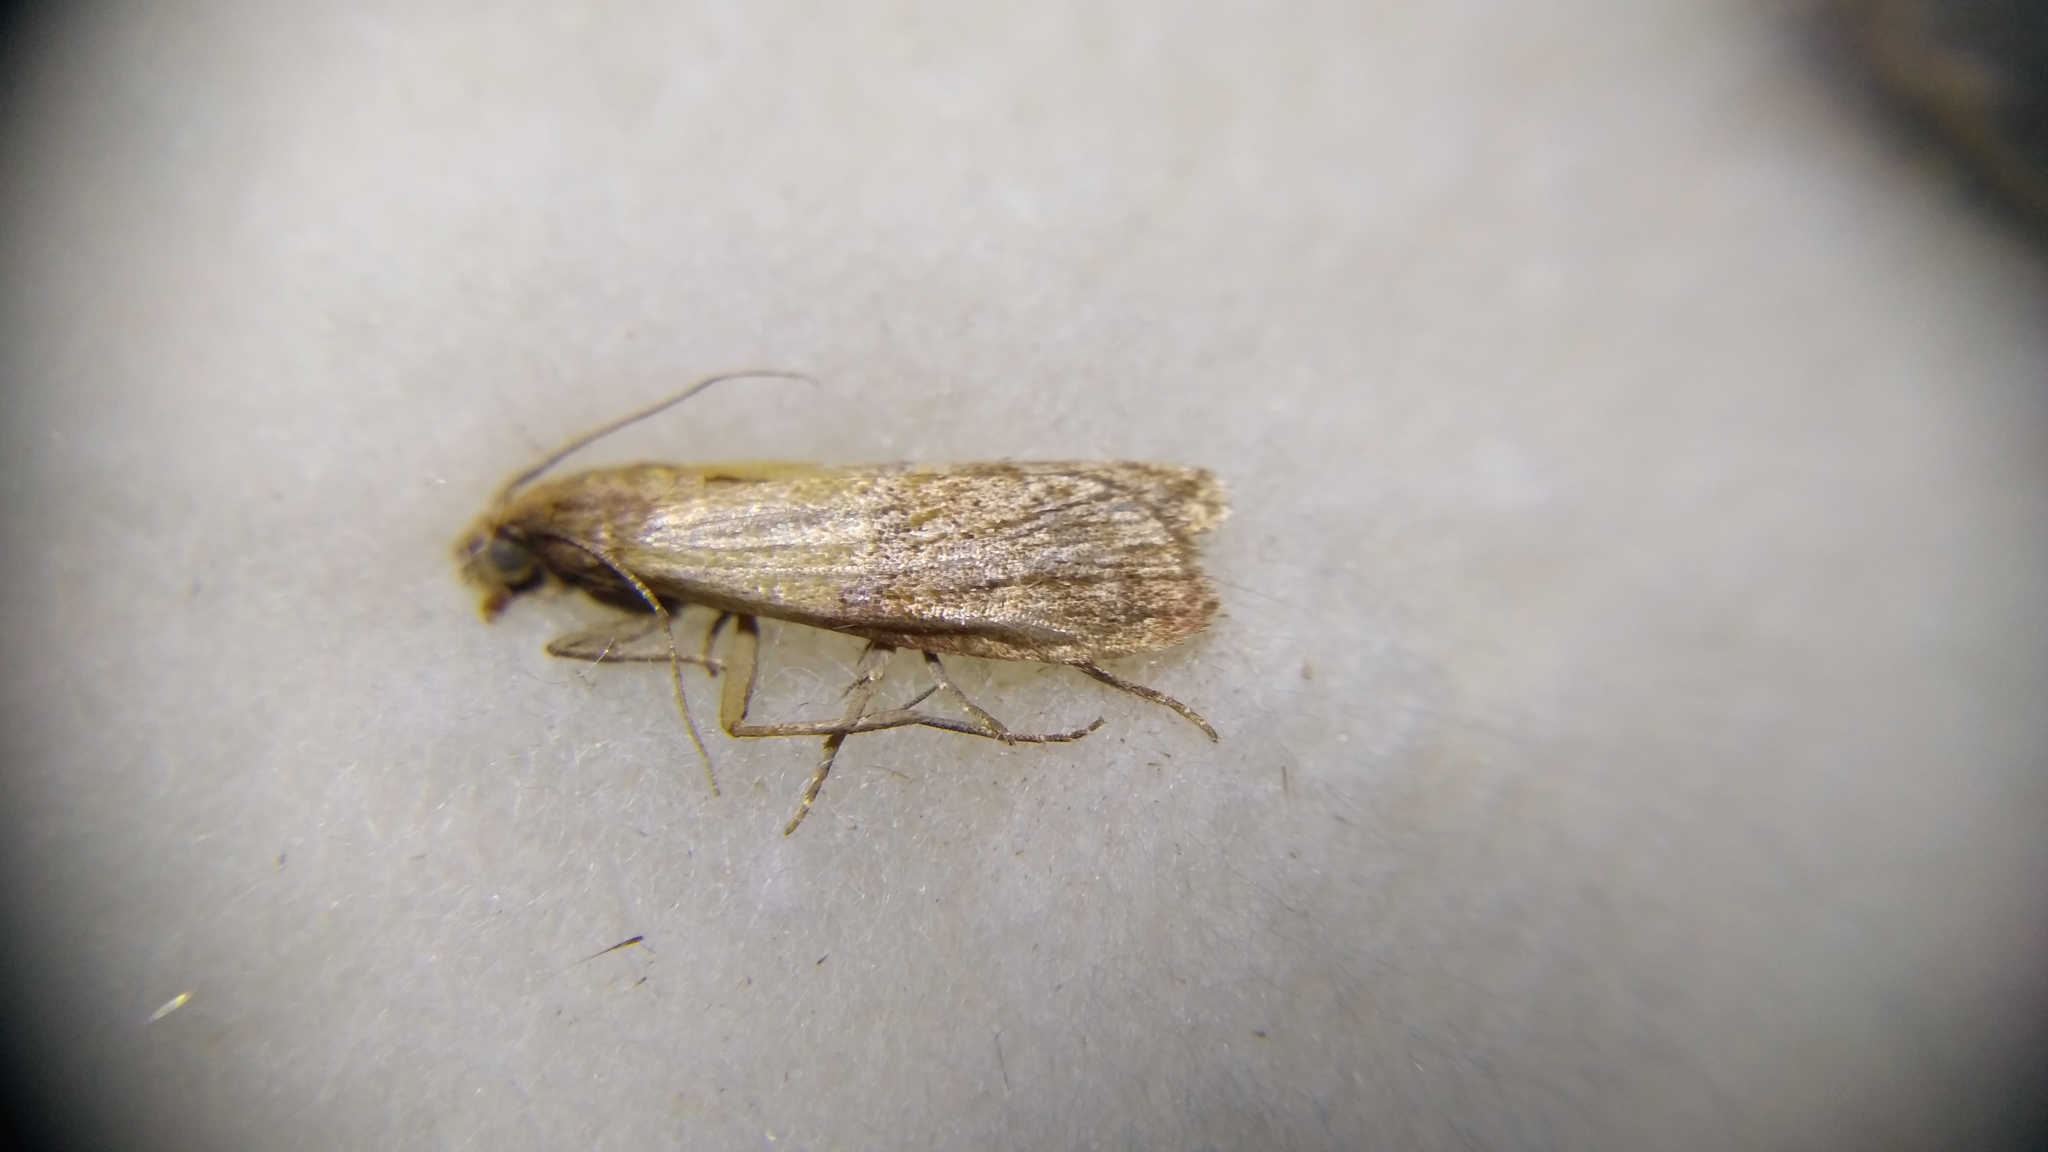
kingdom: Animalia
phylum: Arthropoda
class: Insecta
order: Lepidoptera
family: Pyralidae
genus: Plodia
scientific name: Plodia interpunctella
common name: Indian meal moth
